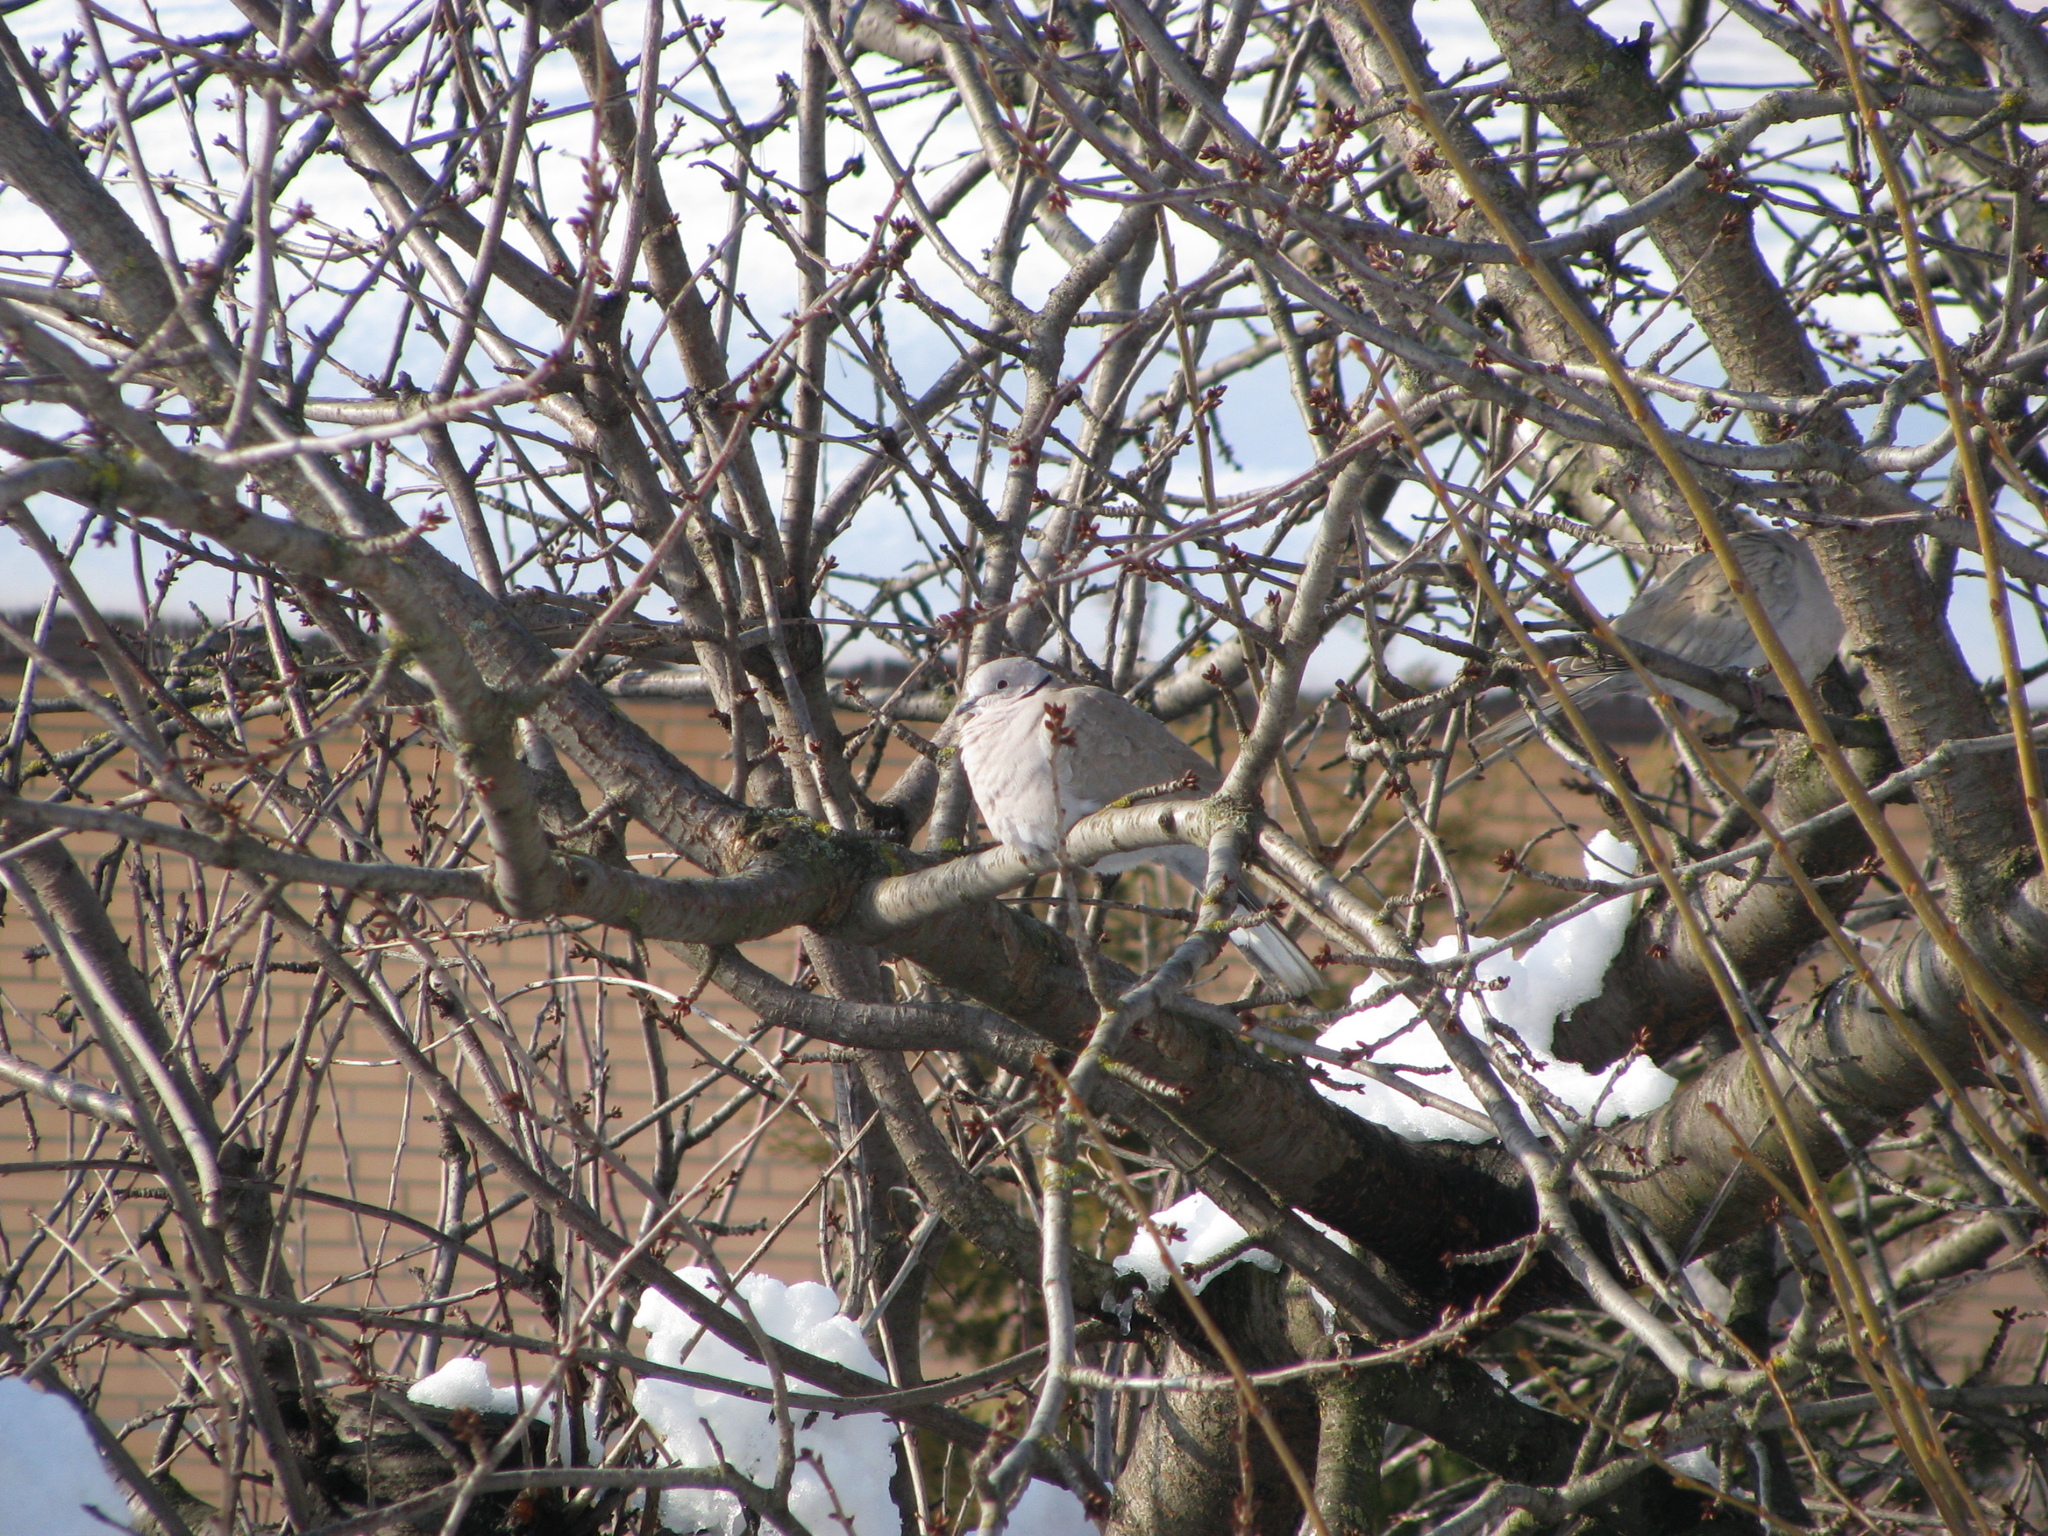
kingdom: Animalia
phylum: Chordata
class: Aves
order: Columbiformes
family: Columbidae
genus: Streptopelia
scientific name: Streptopelia decaocto
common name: Eurasian collared dove
